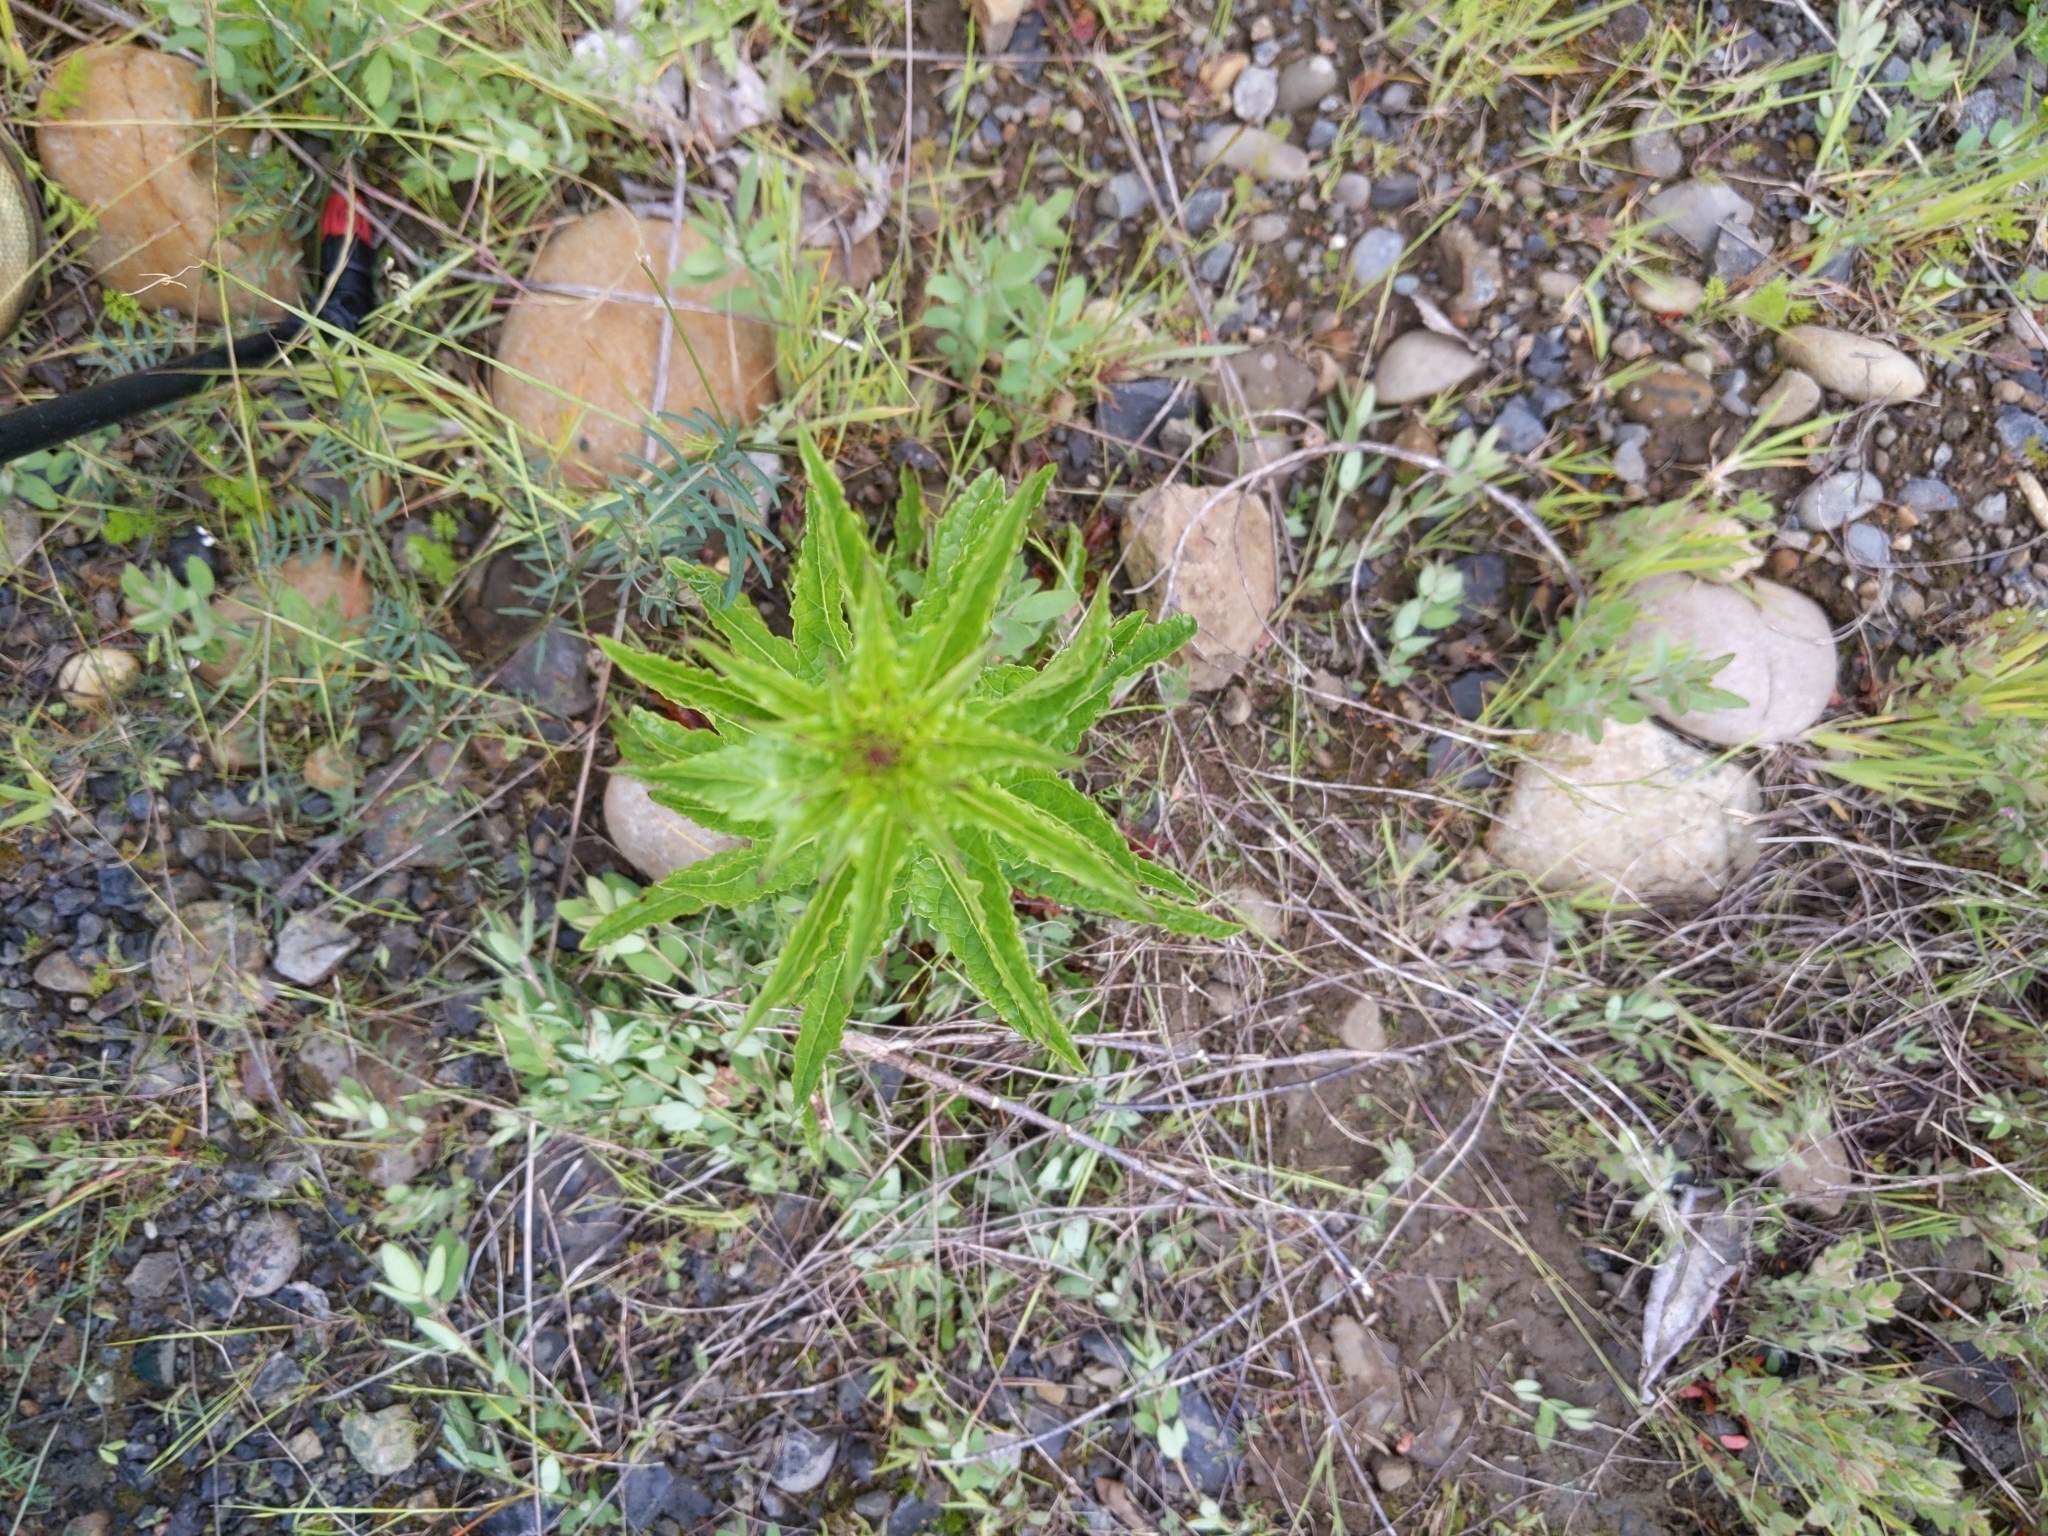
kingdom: Plantae
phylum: Tracheophyta
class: Magnoliopsida
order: Lamiales
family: Scrophulariaceae
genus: Verbascum
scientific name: Verbascum blattaria
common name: Moth mullein
